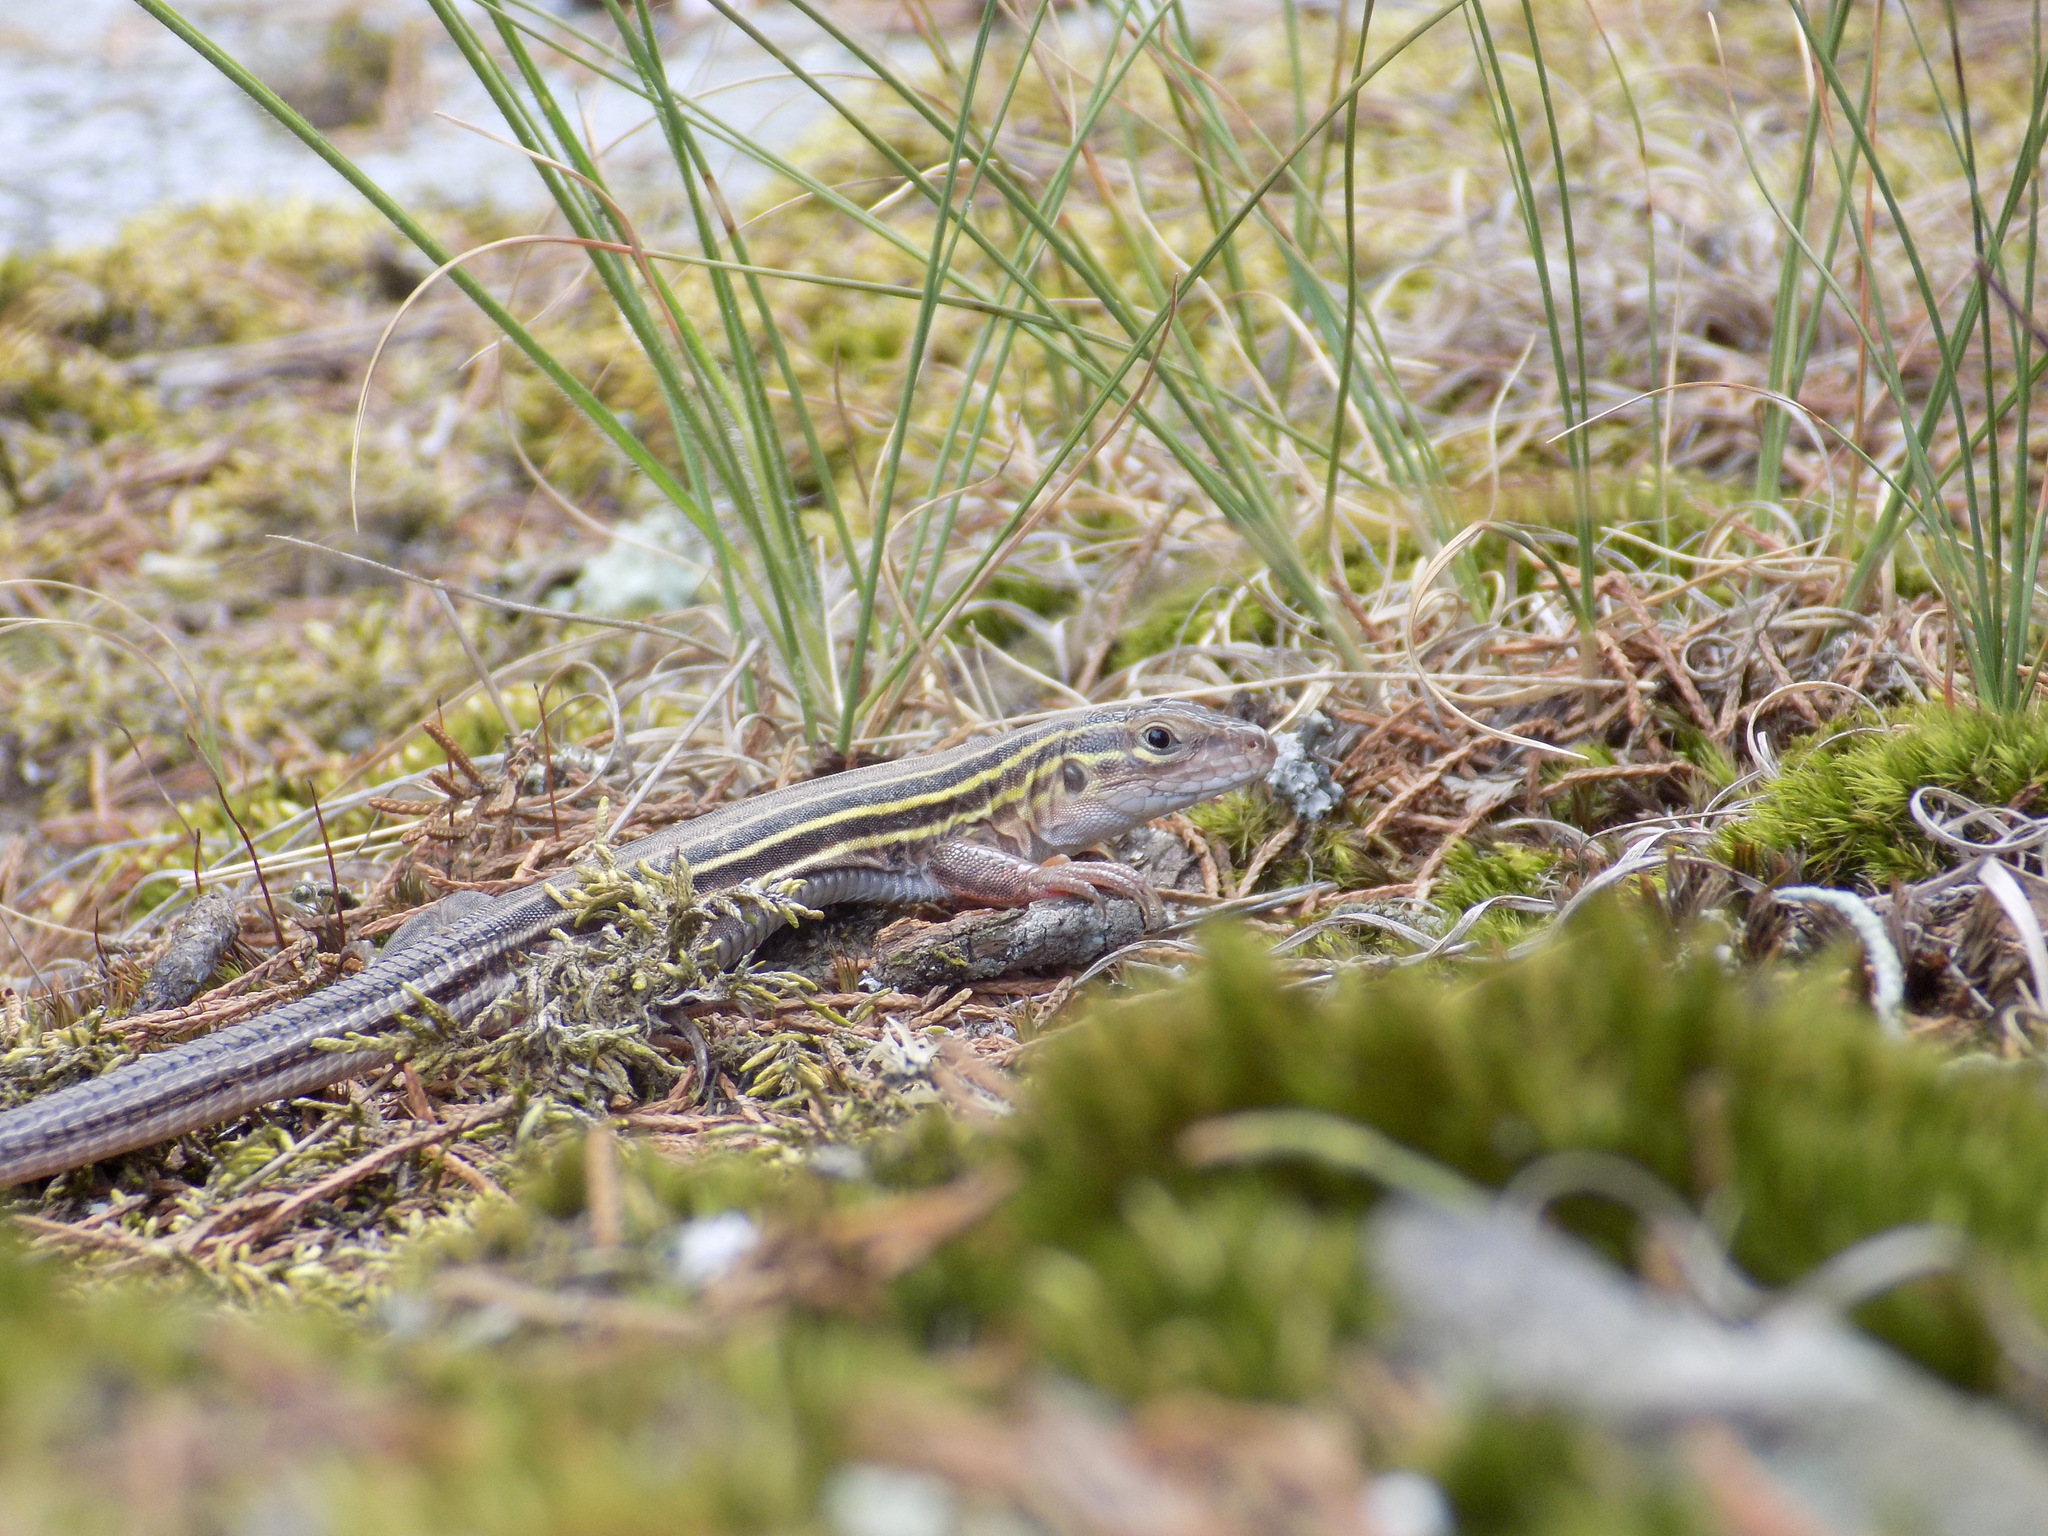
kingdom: Animalia
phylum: Chordata
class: Squamata
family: Teiidae
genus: Aspidoscelis
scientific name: Aspidoscelis sexlineatus
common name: Six-lined racerunner
